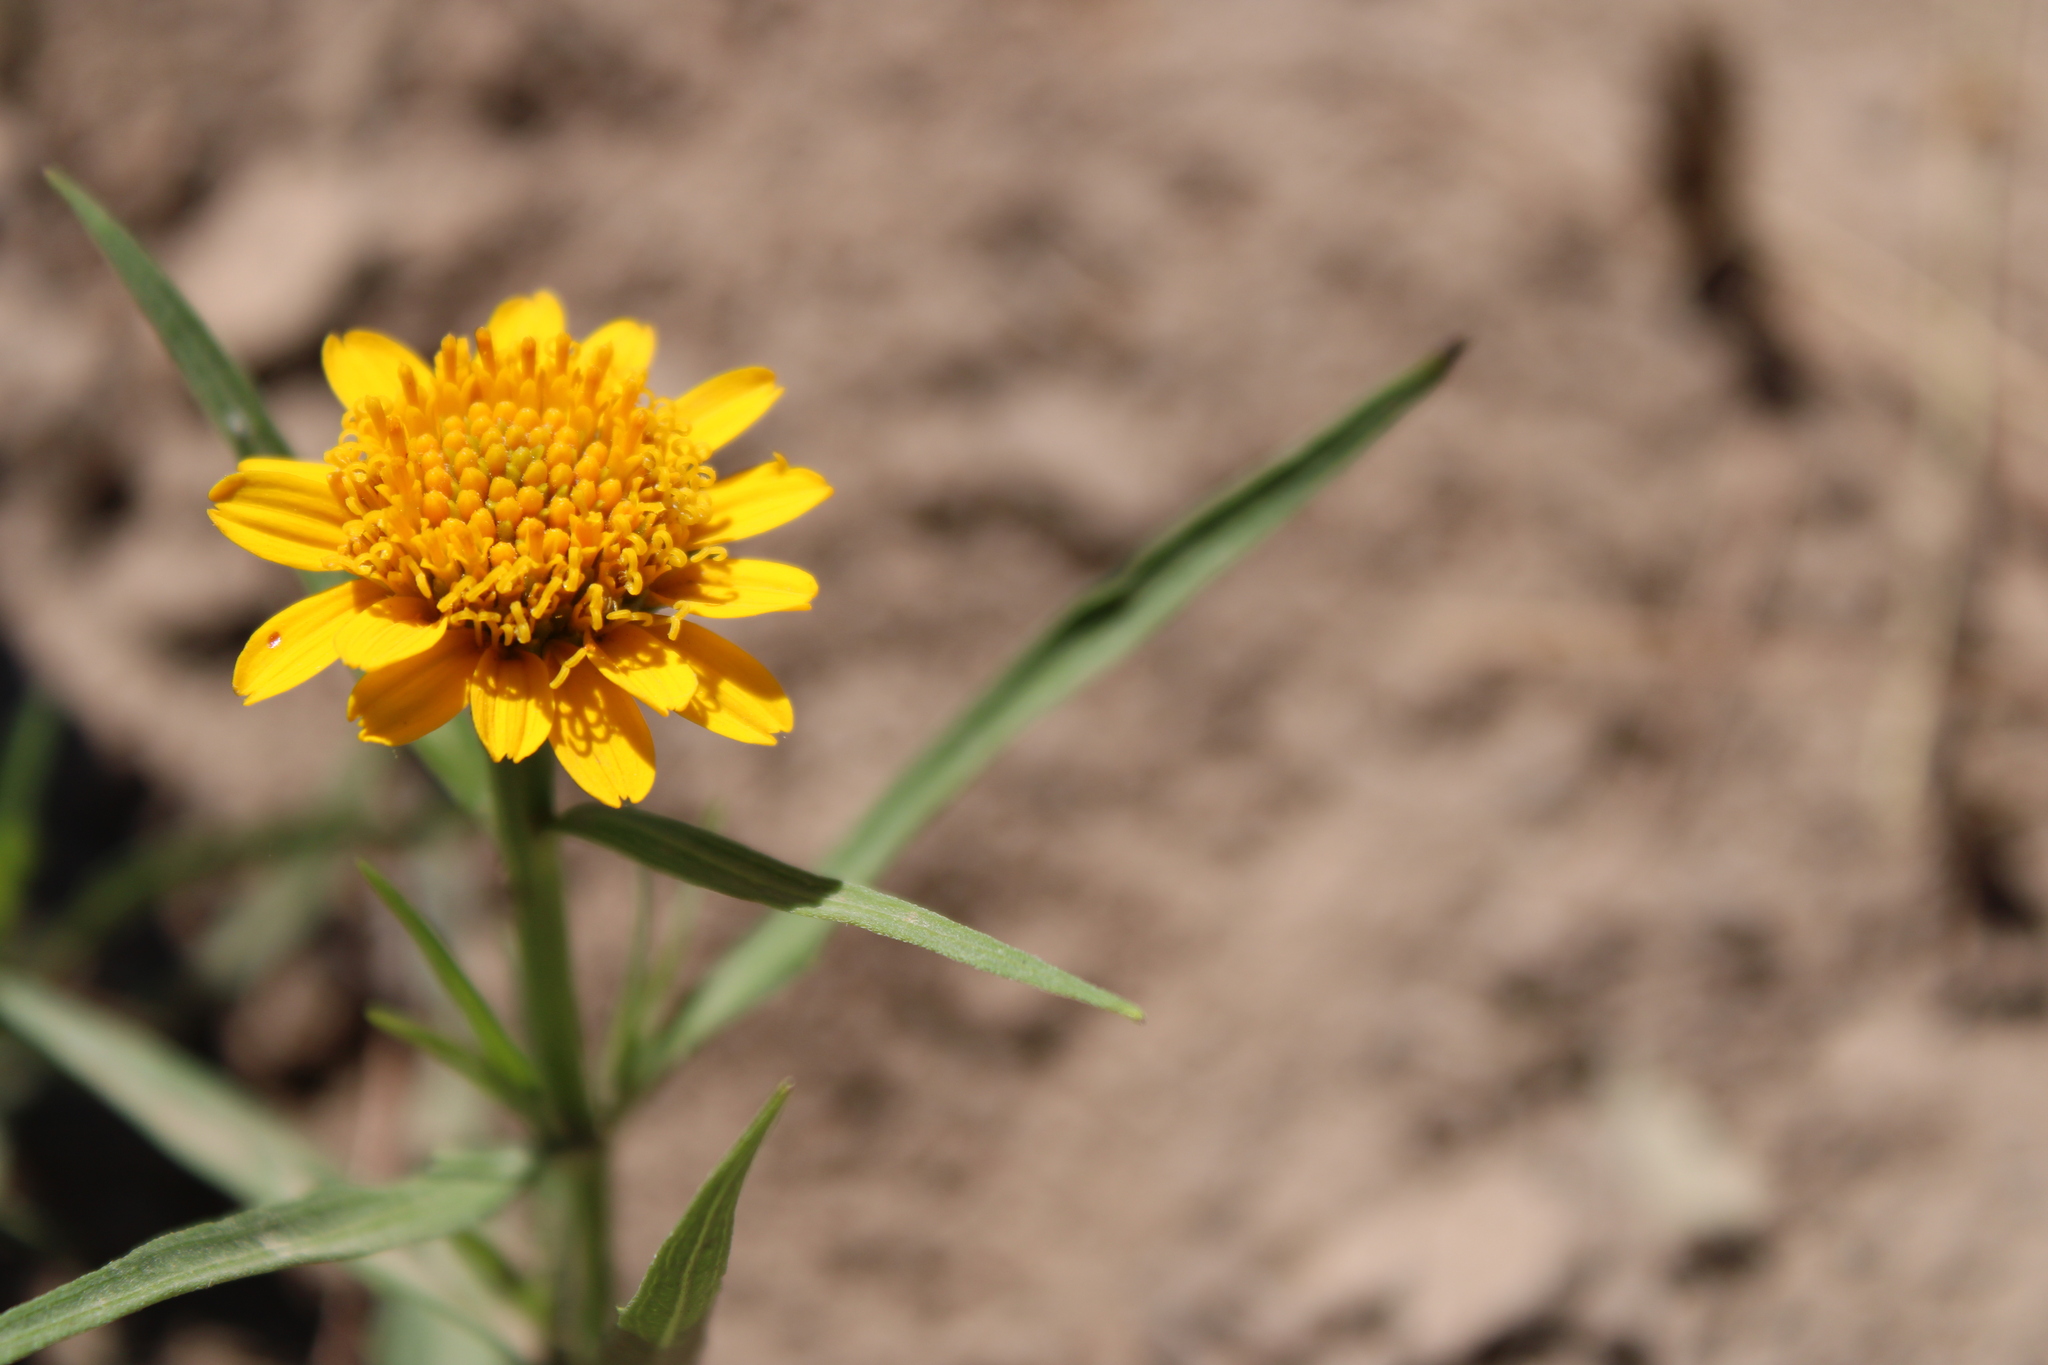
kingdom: Plantae
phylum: Tracheophyta
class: Magnoliopsida
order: Asterales
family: Asteraceae
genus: Pascalia
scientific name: Pascalia glauca
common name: Beach creeping oxeye
